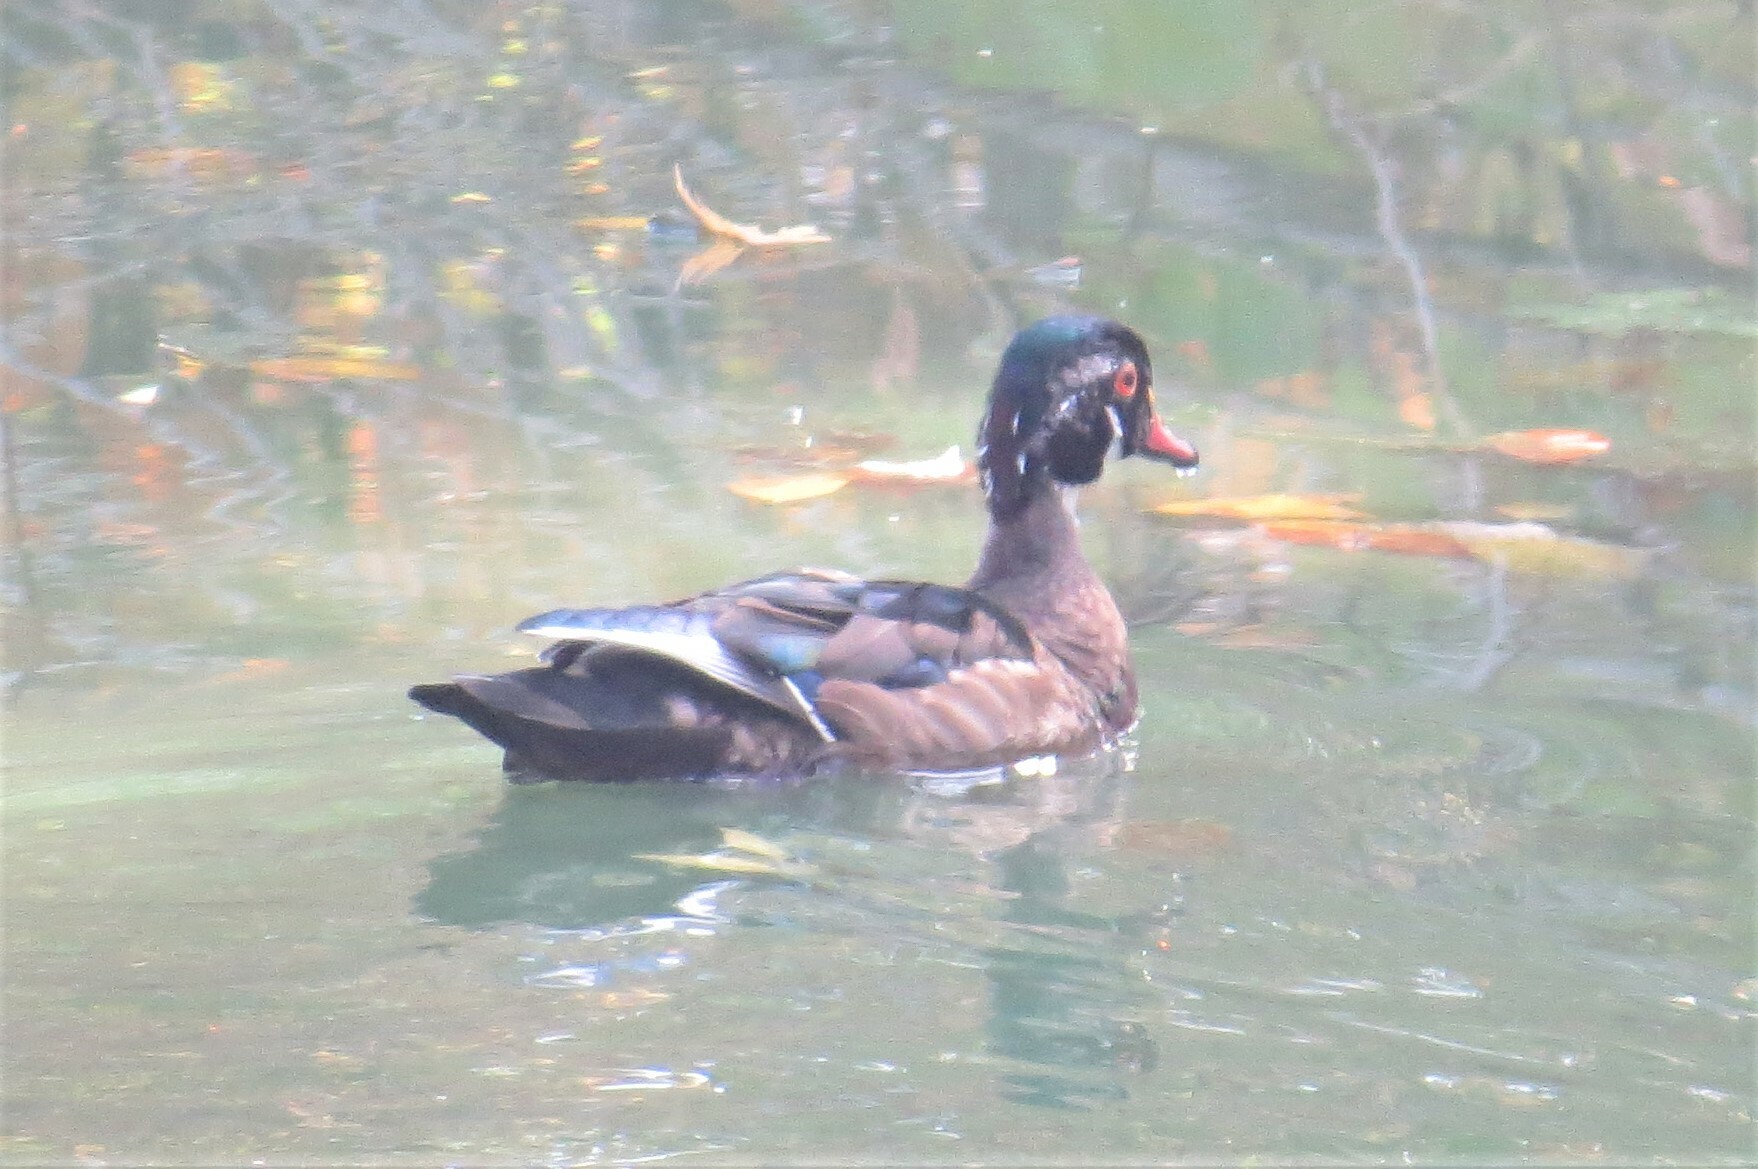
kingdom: Animalia
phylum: Chordata
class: Aves
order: Anseriformes
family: Anatidae
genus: Aix
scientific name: Aix sponsa
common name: Wood duck
